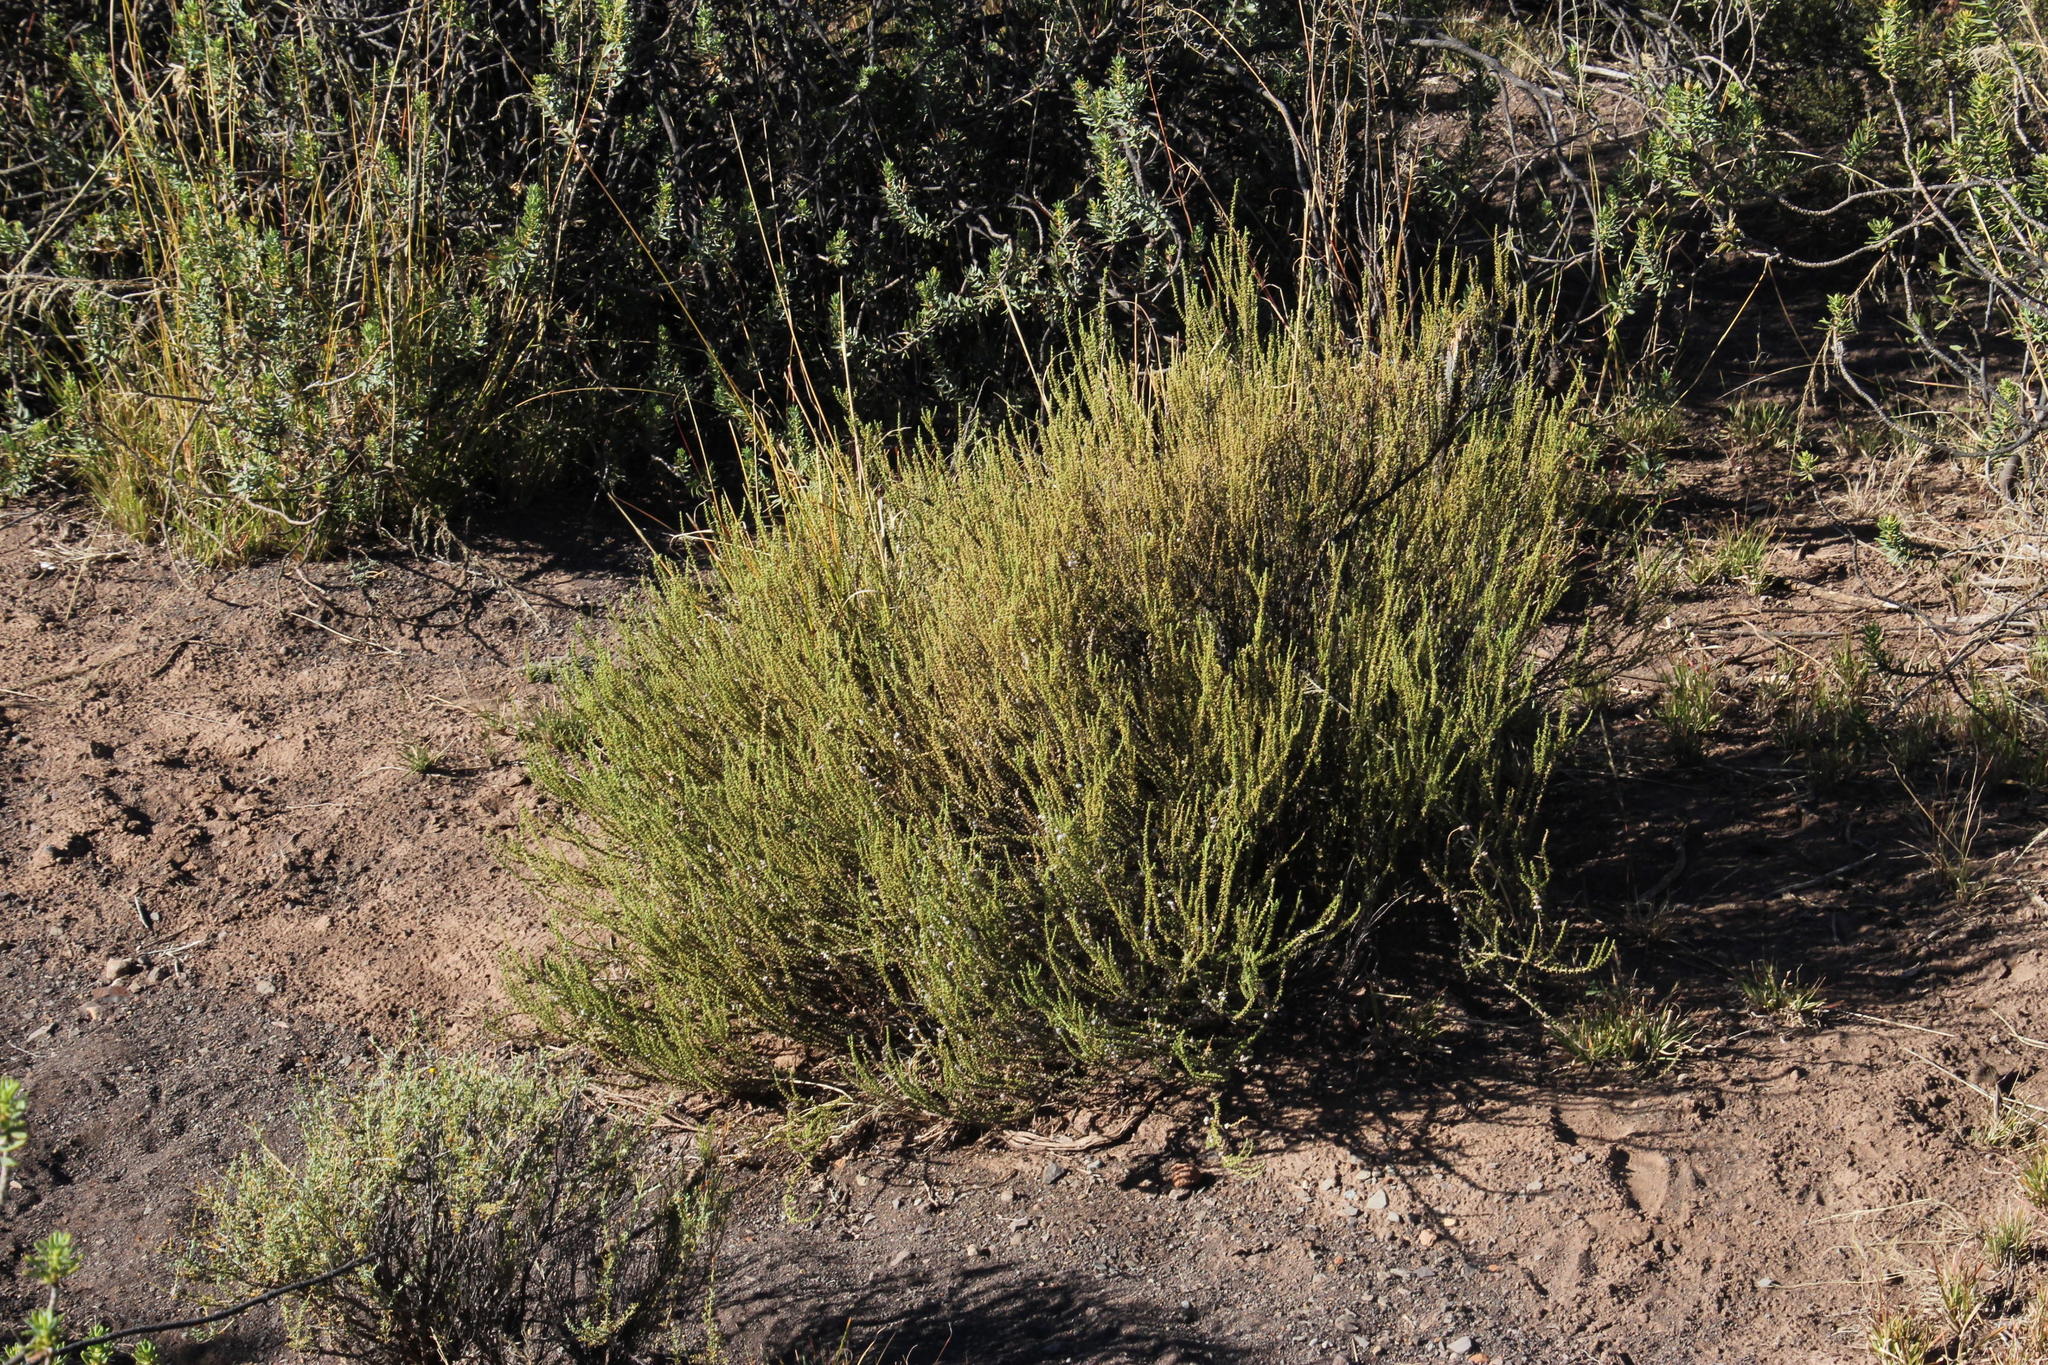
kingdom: Plantae
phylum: Tracheophyta
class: Magnoliopsida
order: Asterales
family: Asteraceae
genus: Eriocephalus
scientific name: Eriocephalus ericoides
